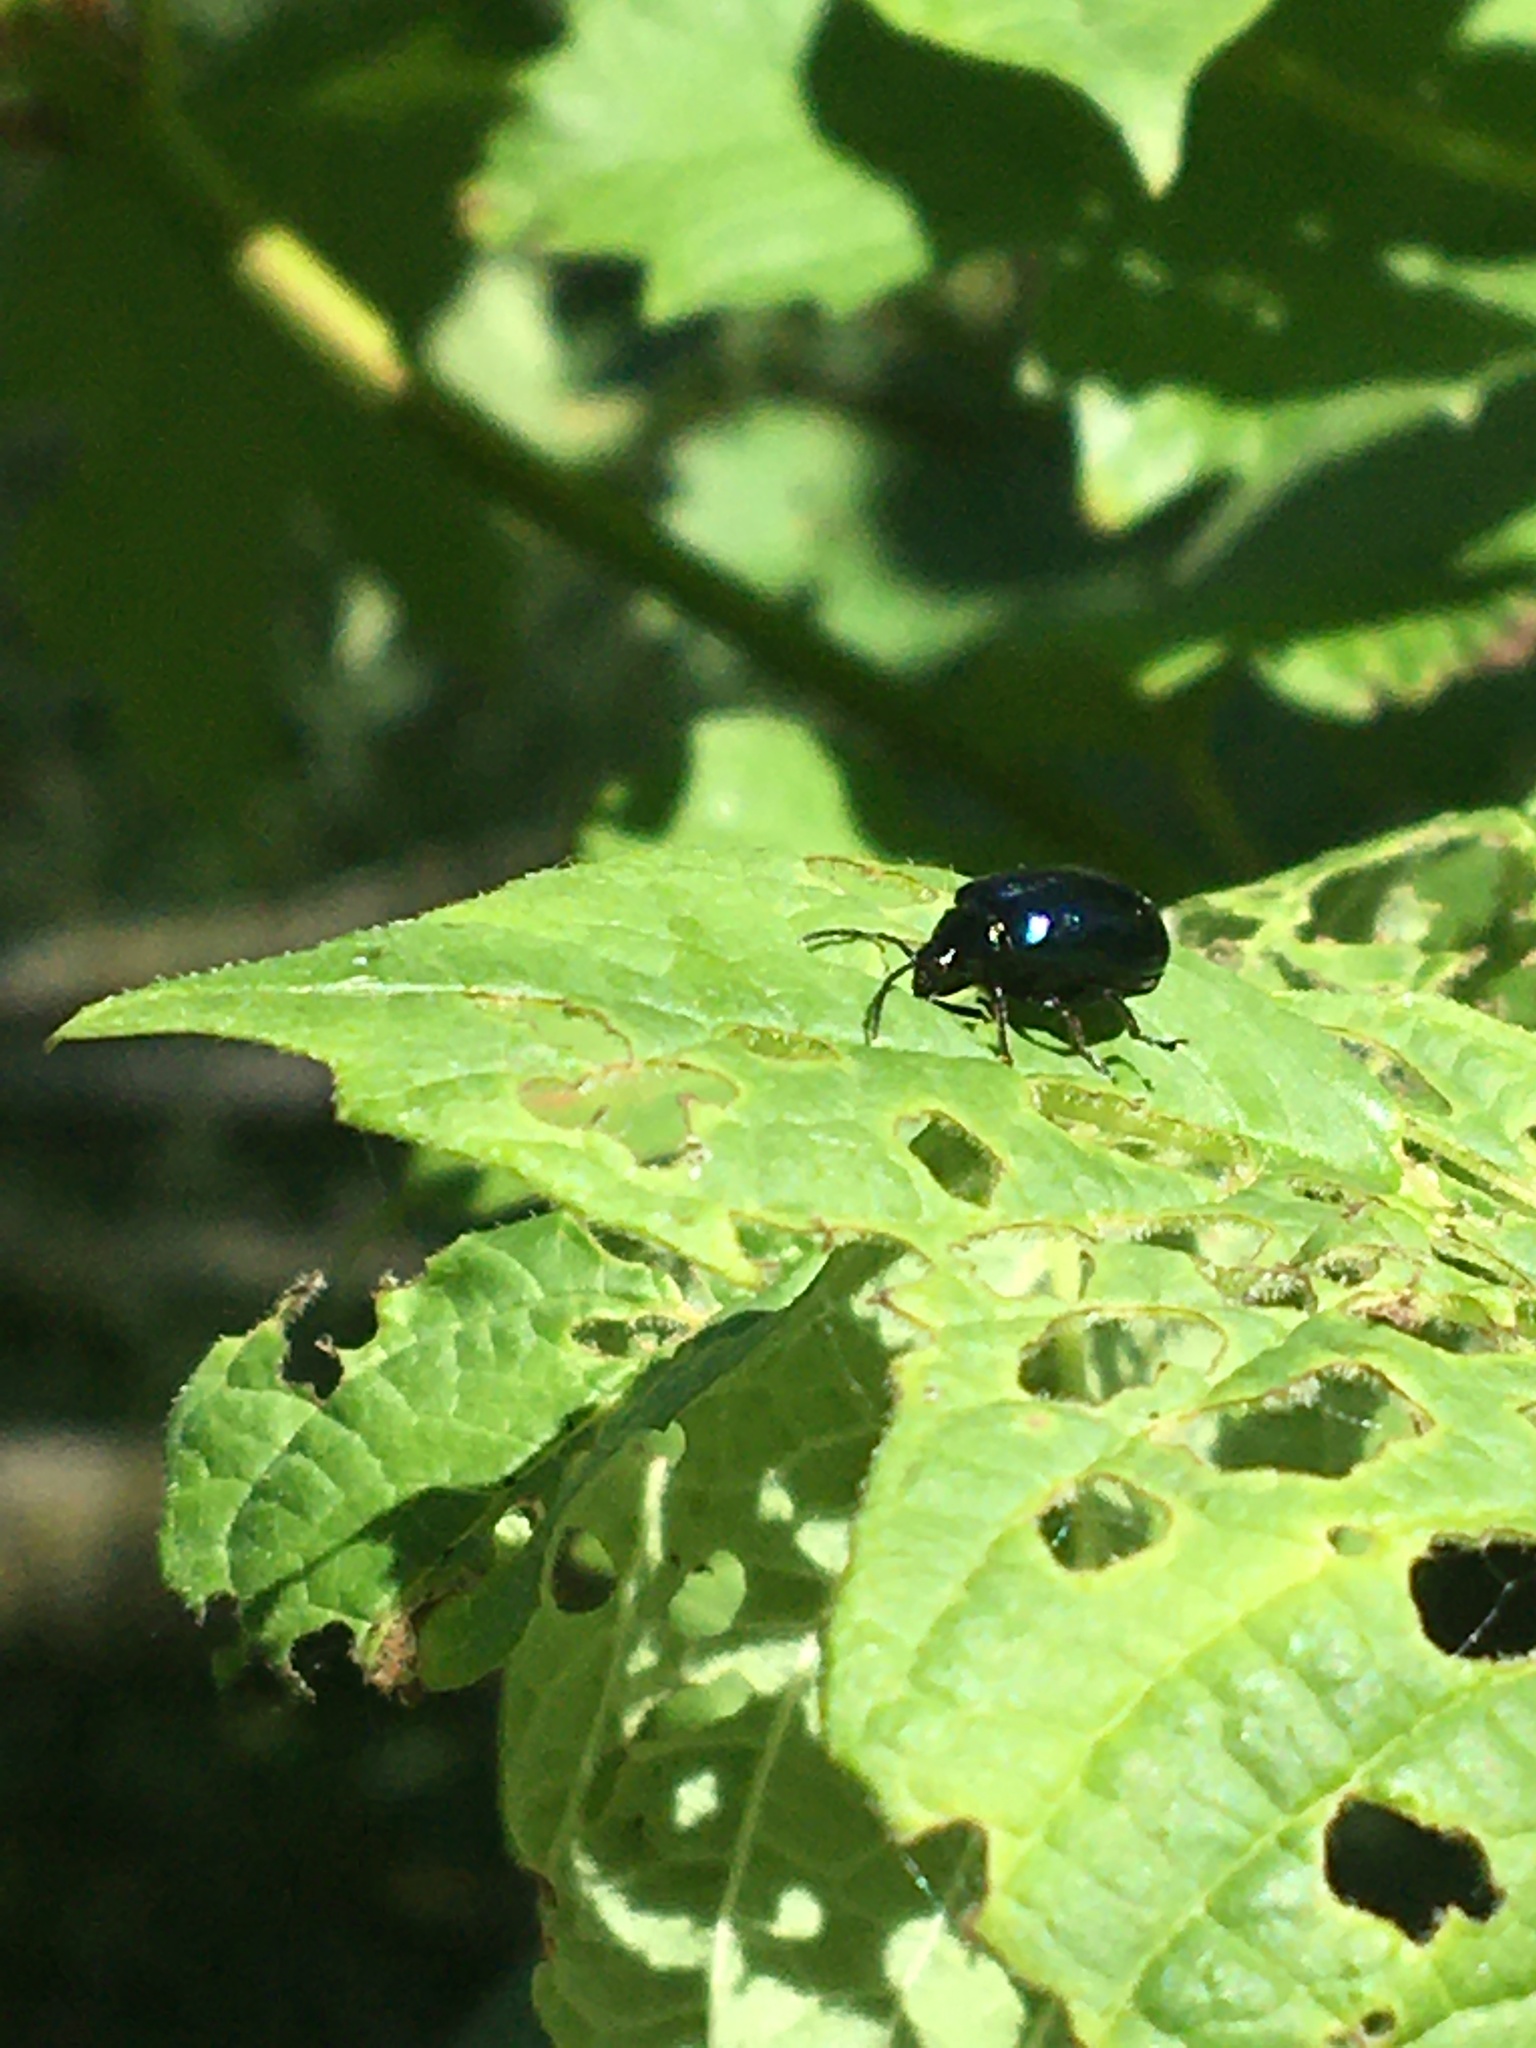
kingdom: Animalia
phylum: Arthropoda
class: Insecta
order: Coleoptera
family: Chrysomelidae
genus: Agelastica
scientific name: Agelastica alni
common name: Alder leaf beetle
